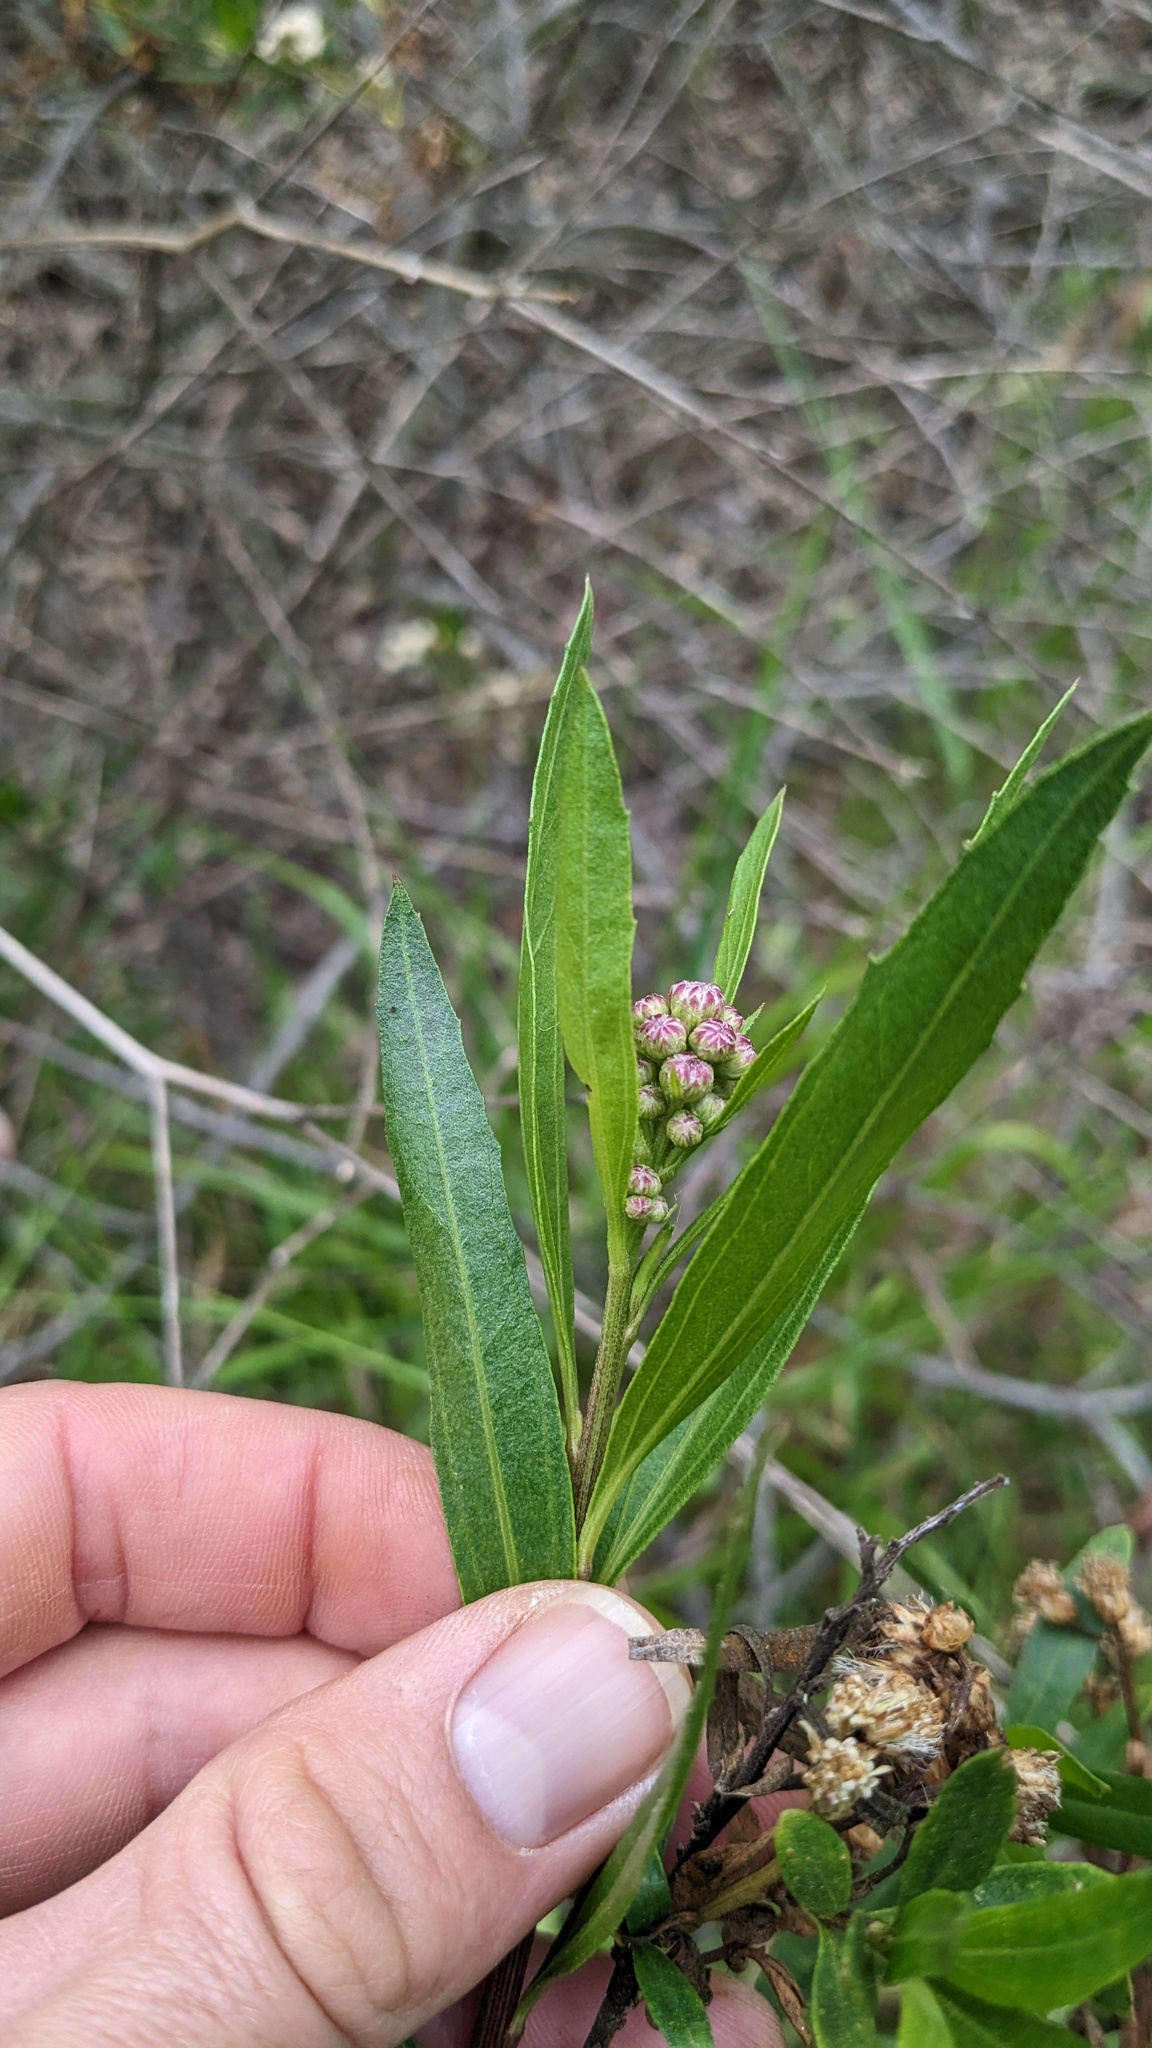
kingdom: Plantae
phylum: Tracheophyta
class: Magnoliopsida
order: Asterales
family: Asteraceae
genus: Baccharis
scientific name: Baccharis salicifolia
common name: Sticky baccharis
